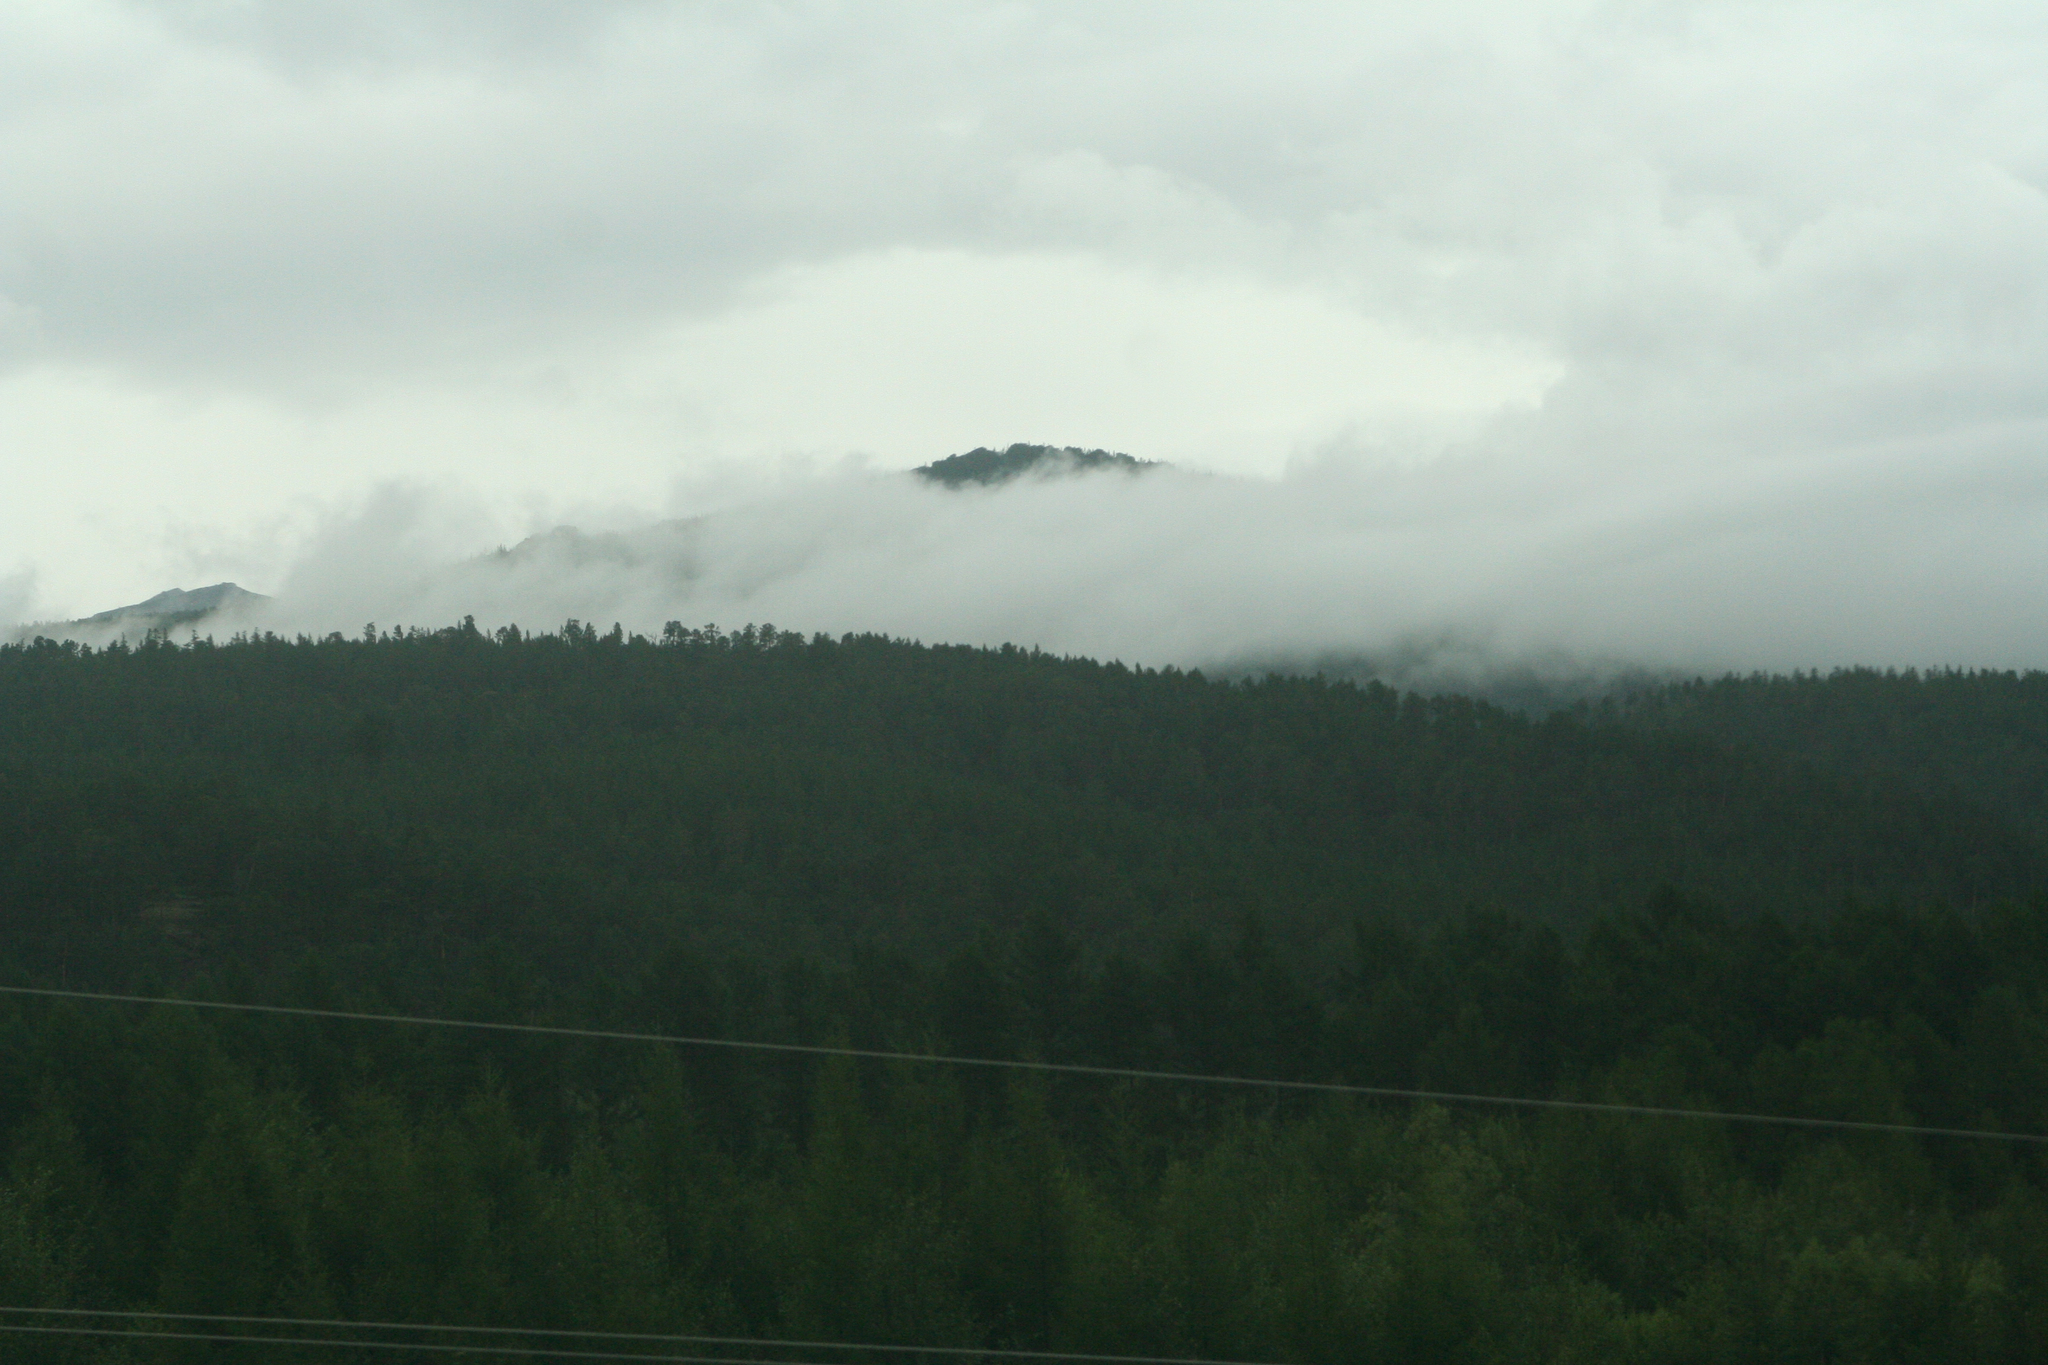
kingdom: Plantae
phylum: Tracheophyta
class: Pinopsida
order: Pinales
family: Pinaceae
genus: Larix
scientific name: Larix gmelinii
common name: Dahurian larch
